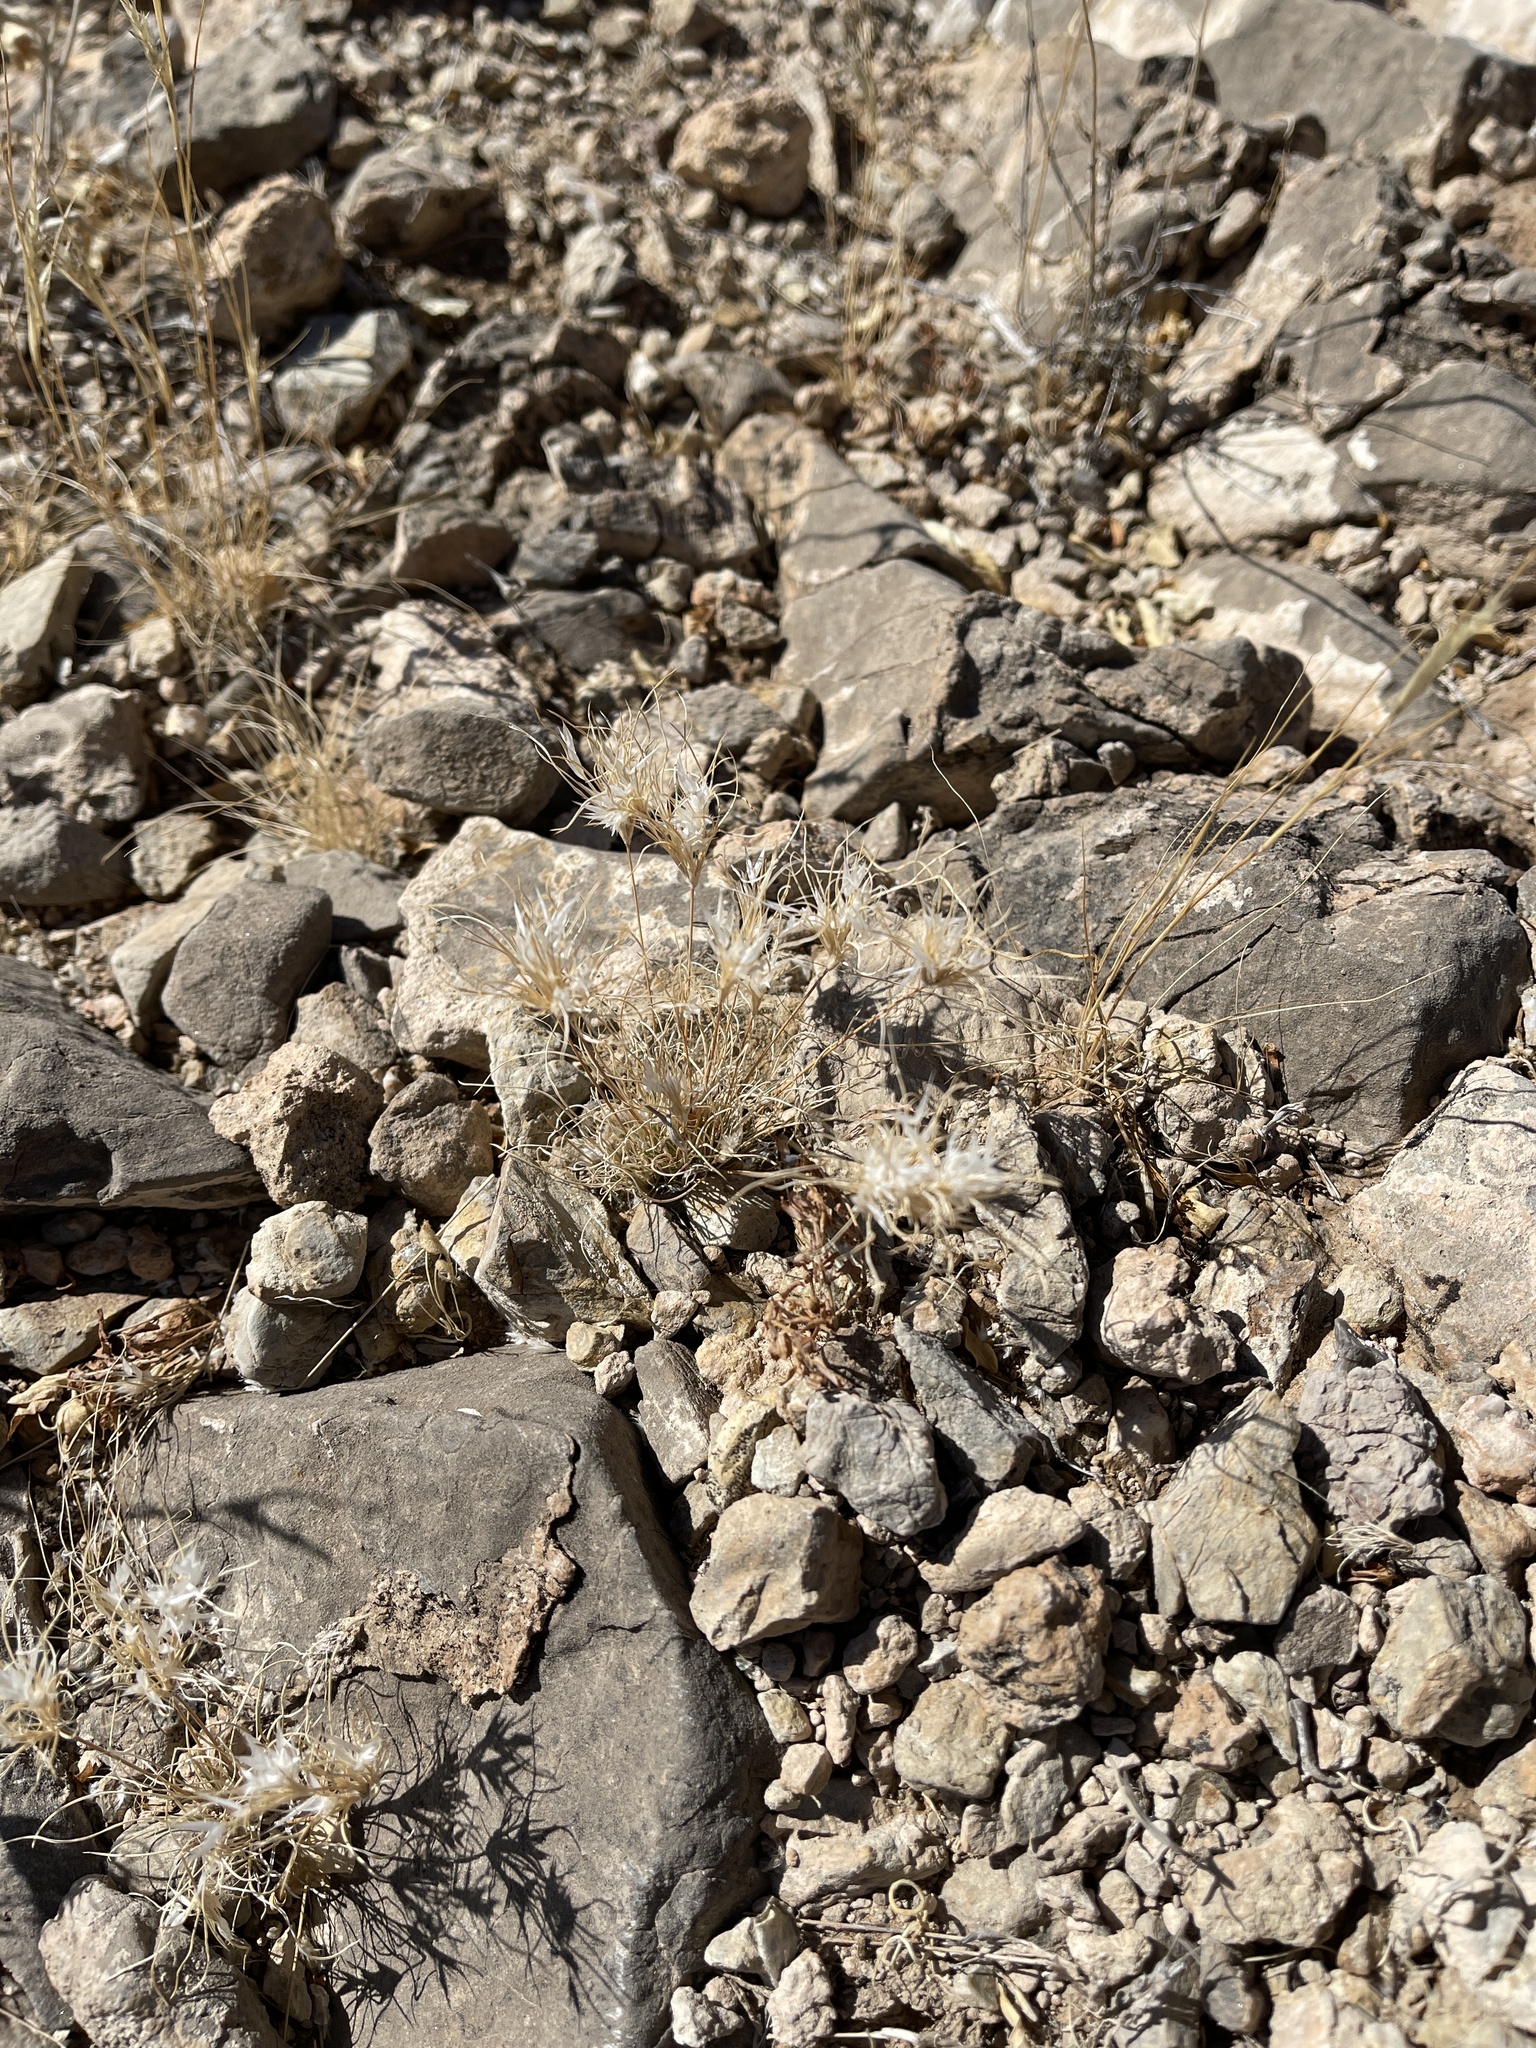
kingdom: Plantae
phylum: Tracheophyta
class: Liliopsida
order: Poales
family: Poaceae
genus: Dasyochloa
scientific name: Dasyochloa pulchella
